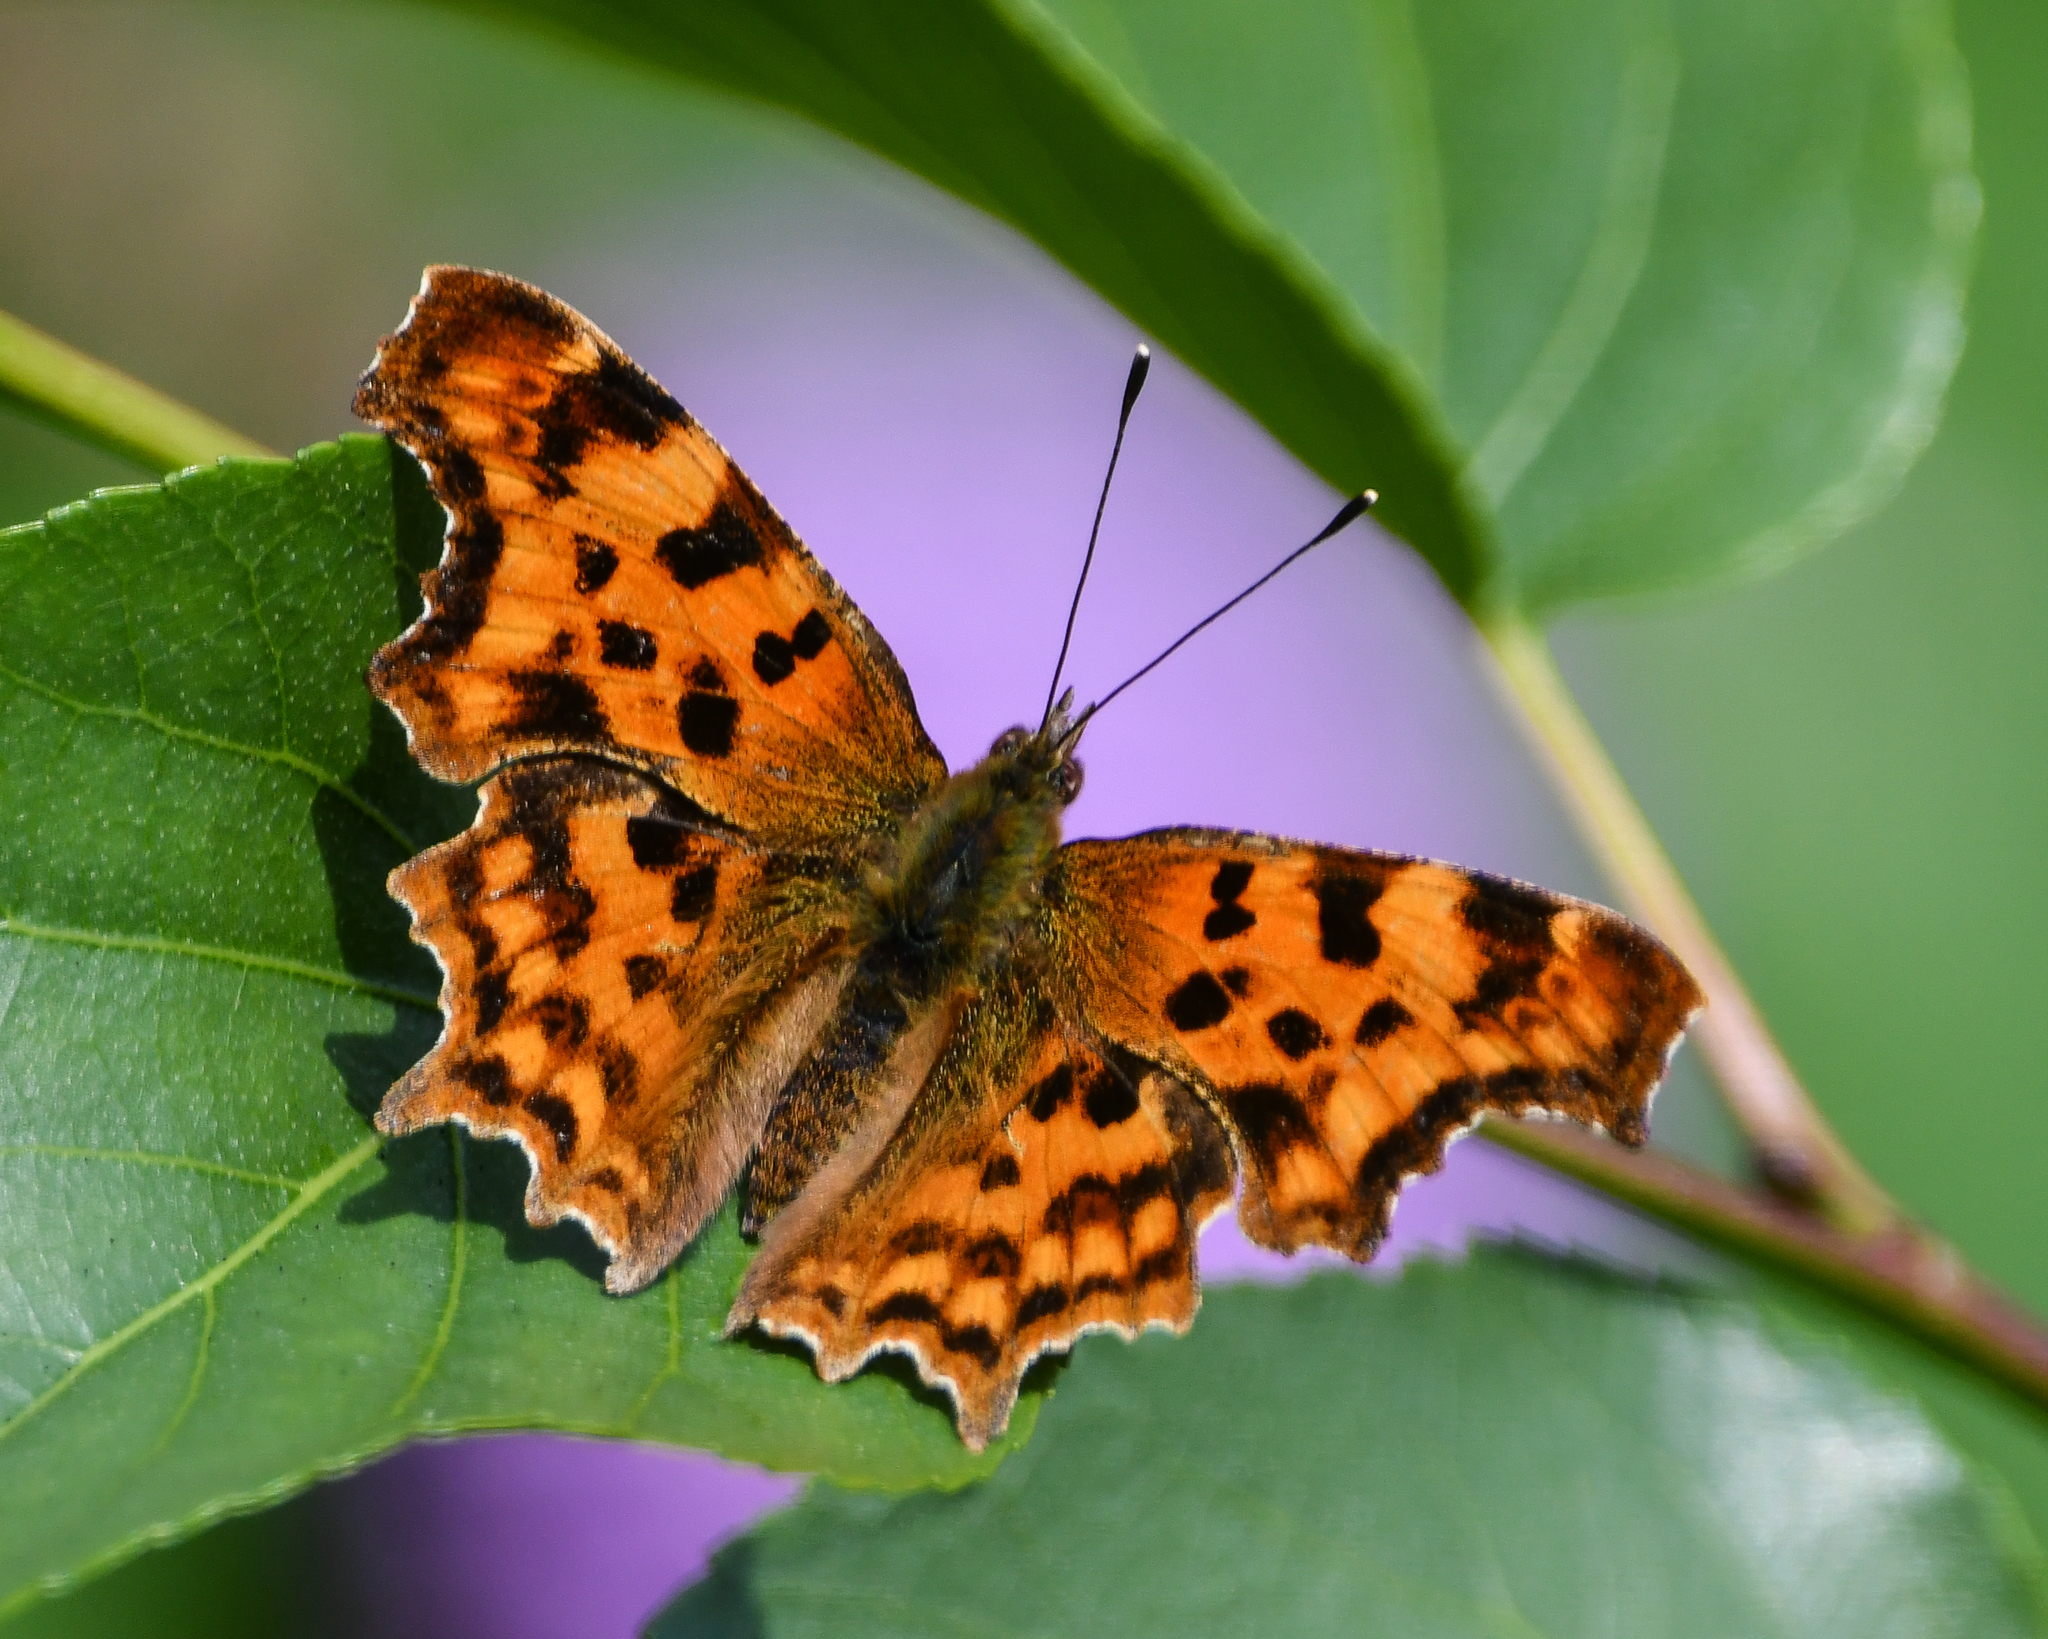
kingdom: Animalia
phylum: Arthropoda
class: Insecta
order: Lepidoptera
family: Nymphalidae
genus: Polygonia
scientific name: Polygonia c-album
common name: Comma
